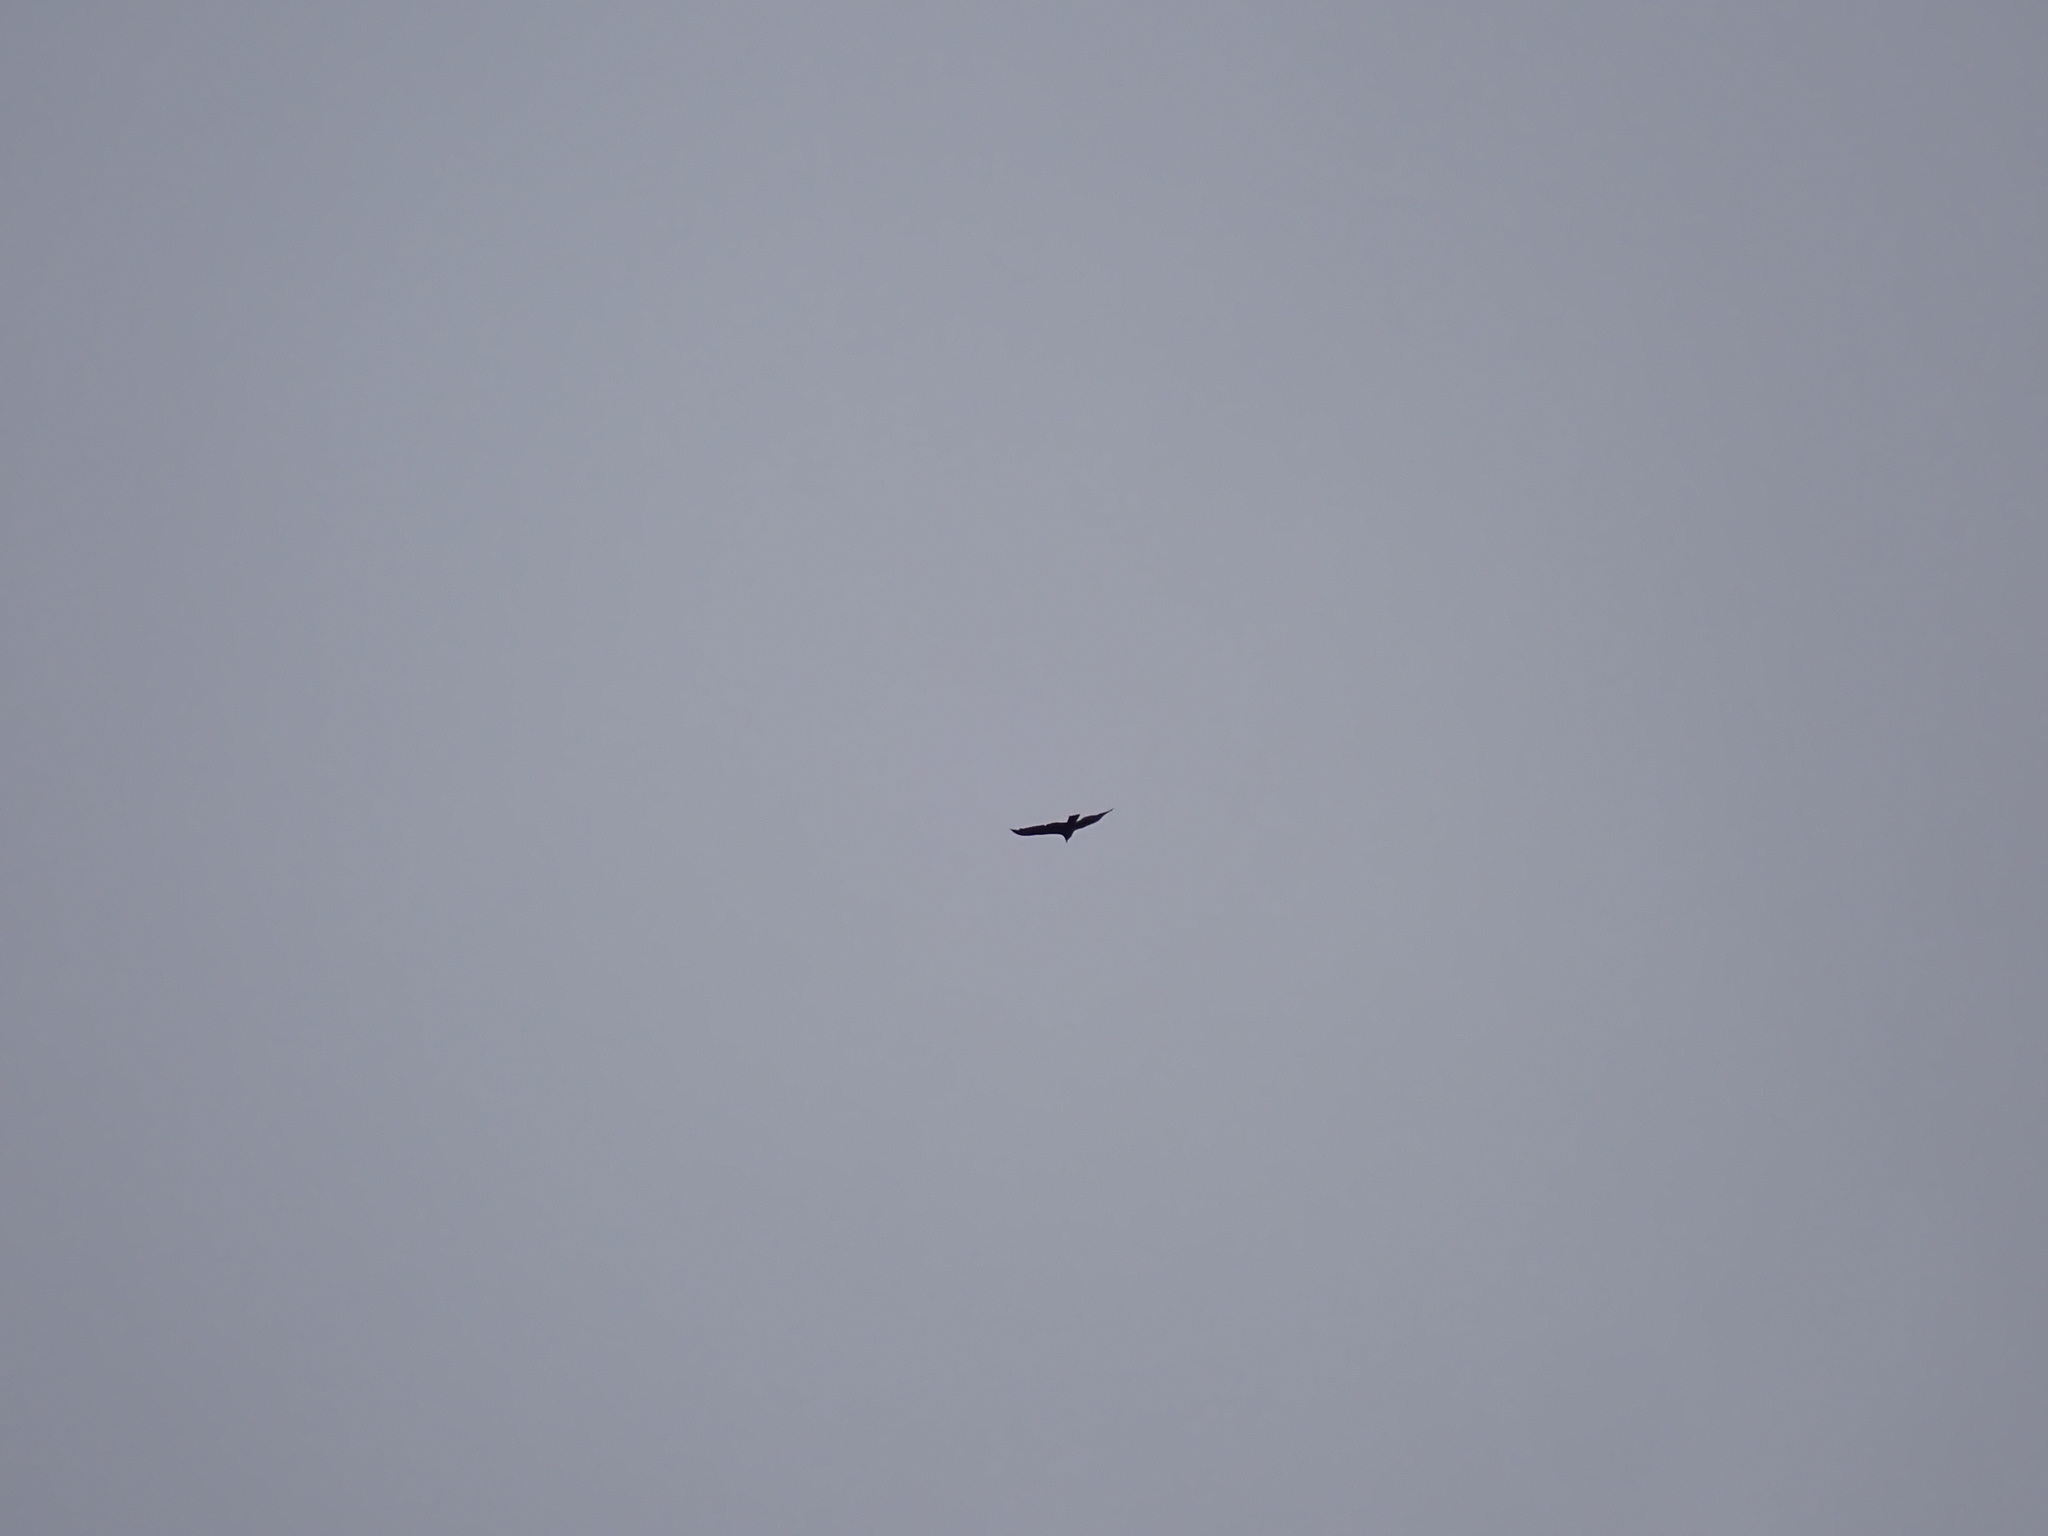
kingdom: Animalia
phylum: Chordata
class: Aves
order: Accipitriformes
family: Cathartidae
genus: Cathartes
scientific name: Cathartes aura
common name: Turkey vulture
